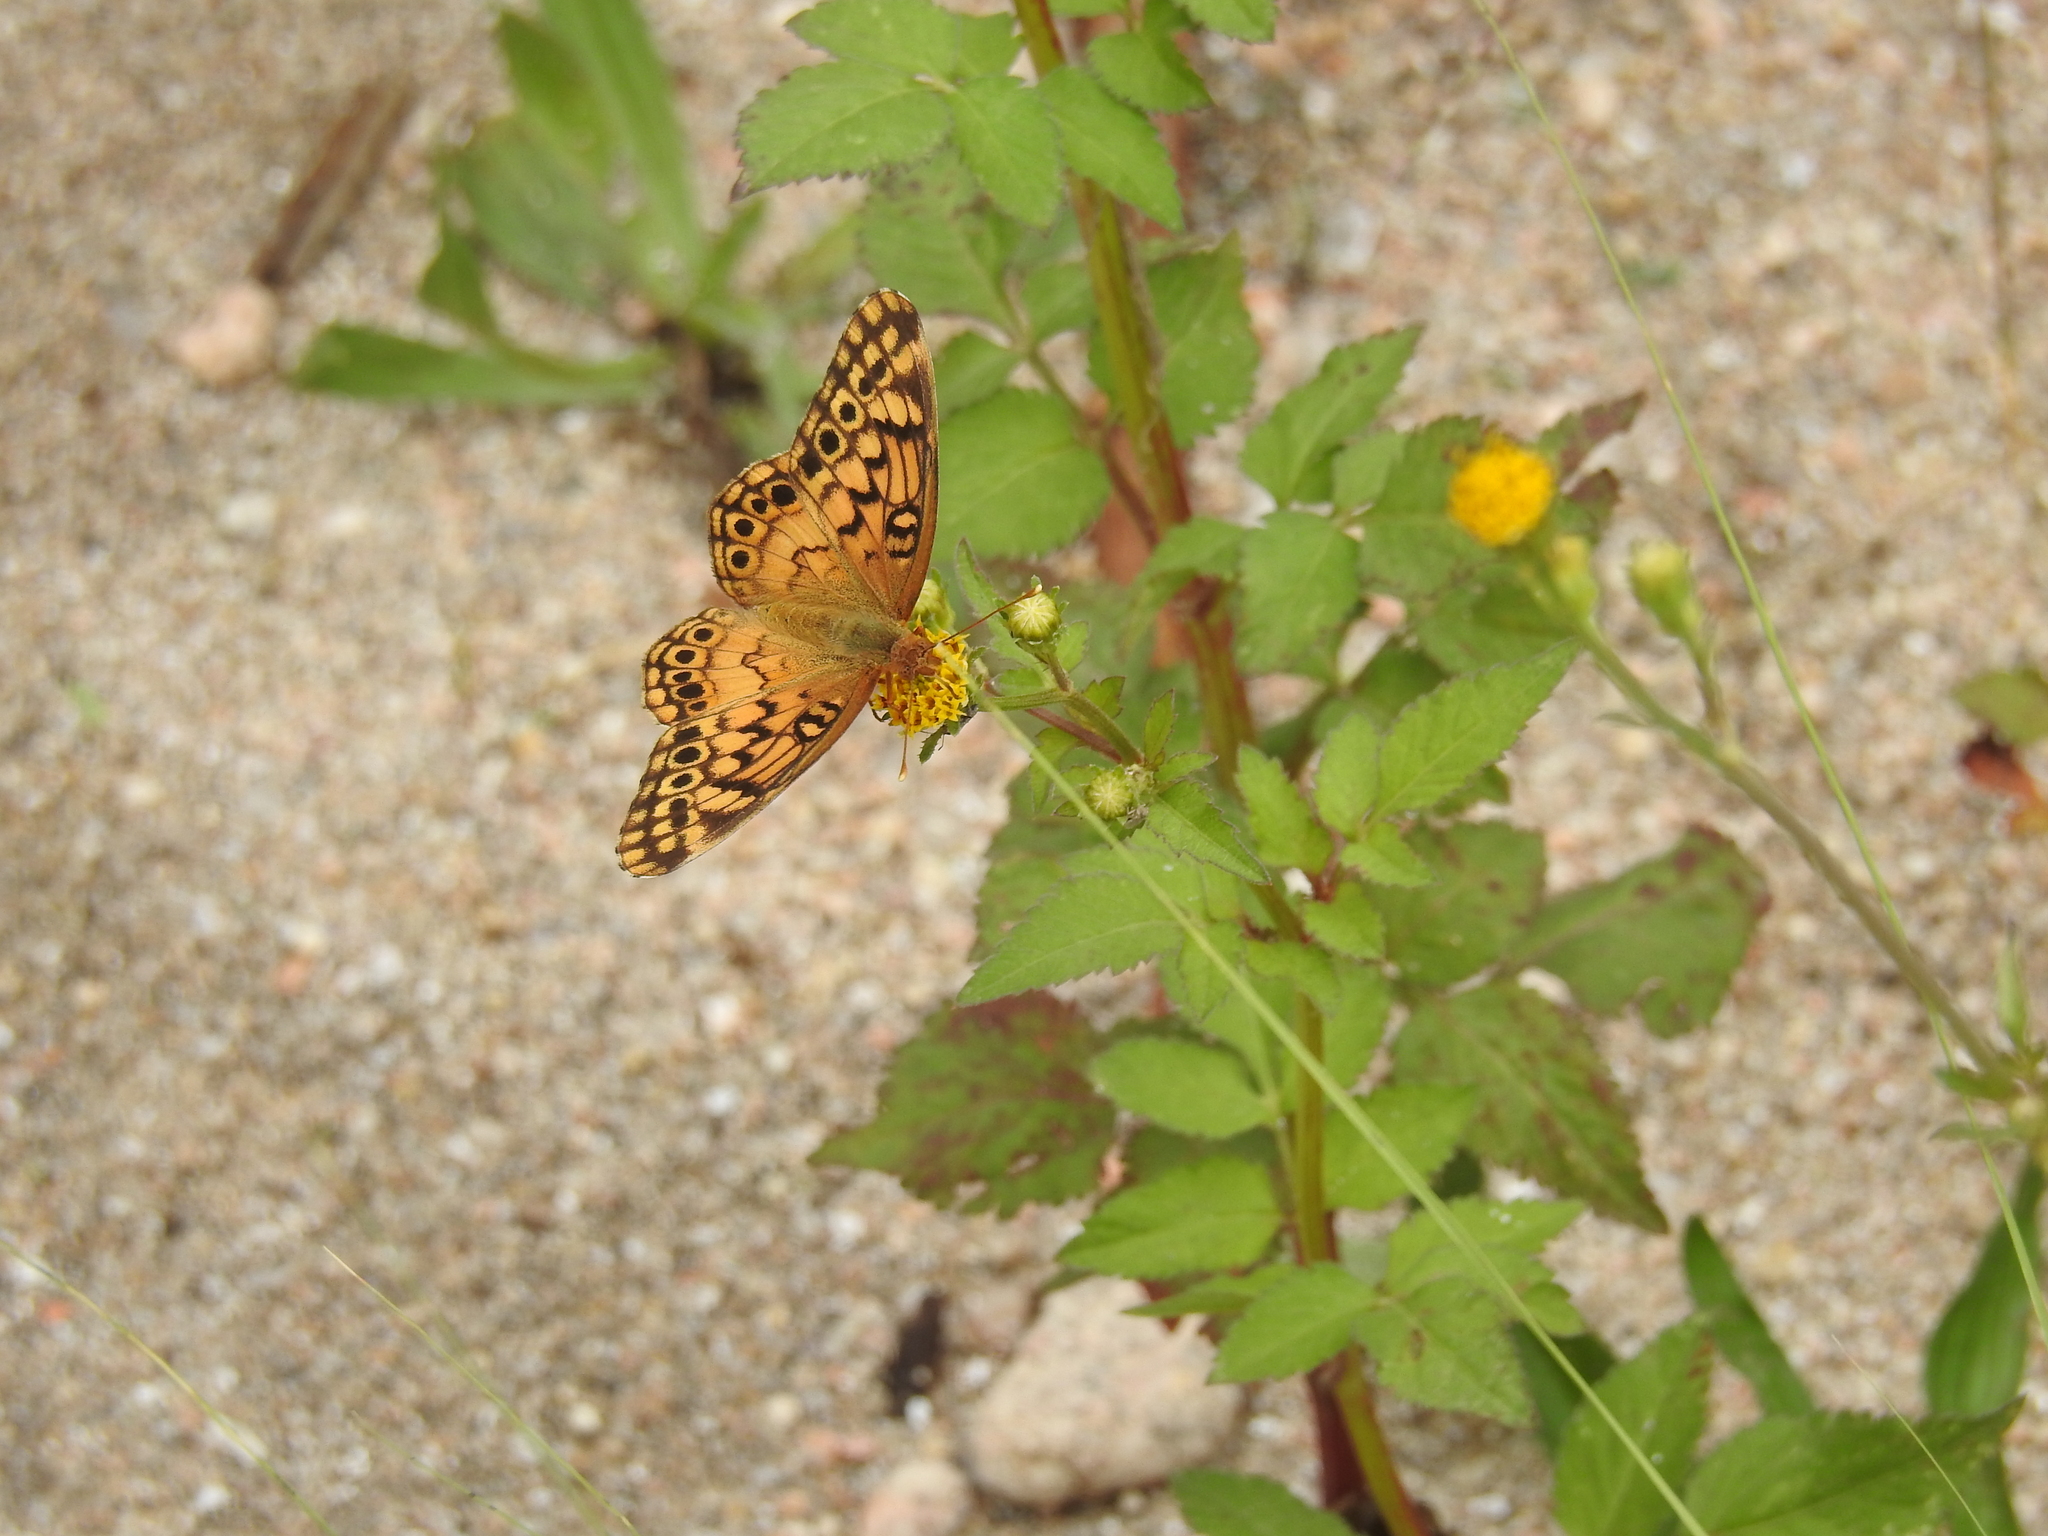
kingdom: Animalia
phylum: Arthropoda
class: Insecta
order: Lepidoptera
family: Nymphalidae
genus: Euptoieta
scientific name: Euptoieta hortensia
